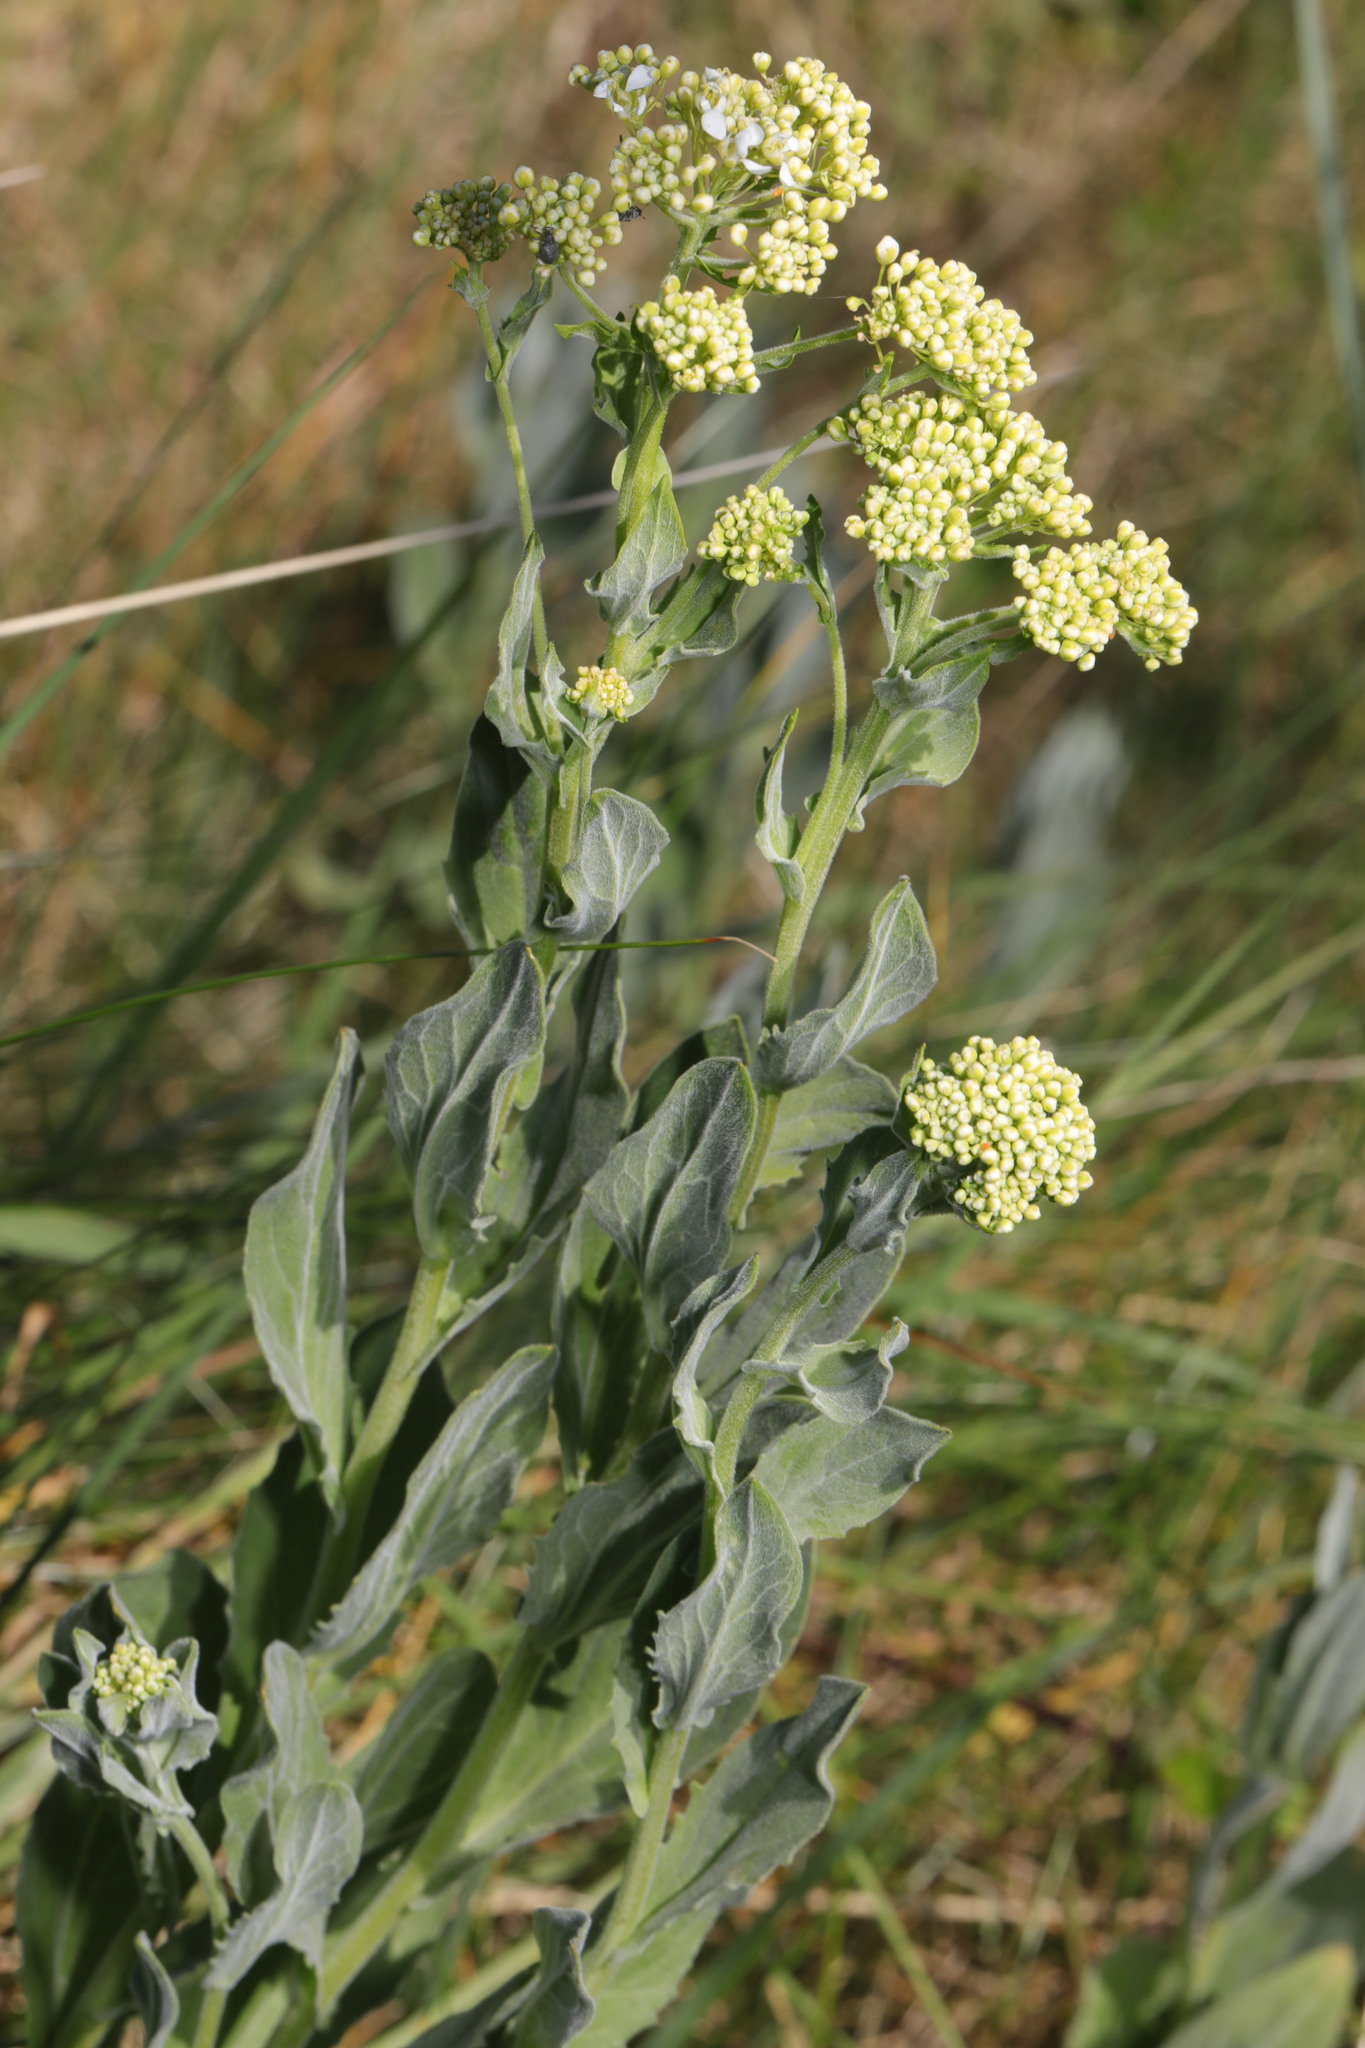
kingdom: Plantae
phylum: Tracheophyta
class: Magnoliopsida
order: Brassicales
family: Brassicaceae
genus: Lepidium
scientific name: Lepidium draba
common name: Hoary cress
